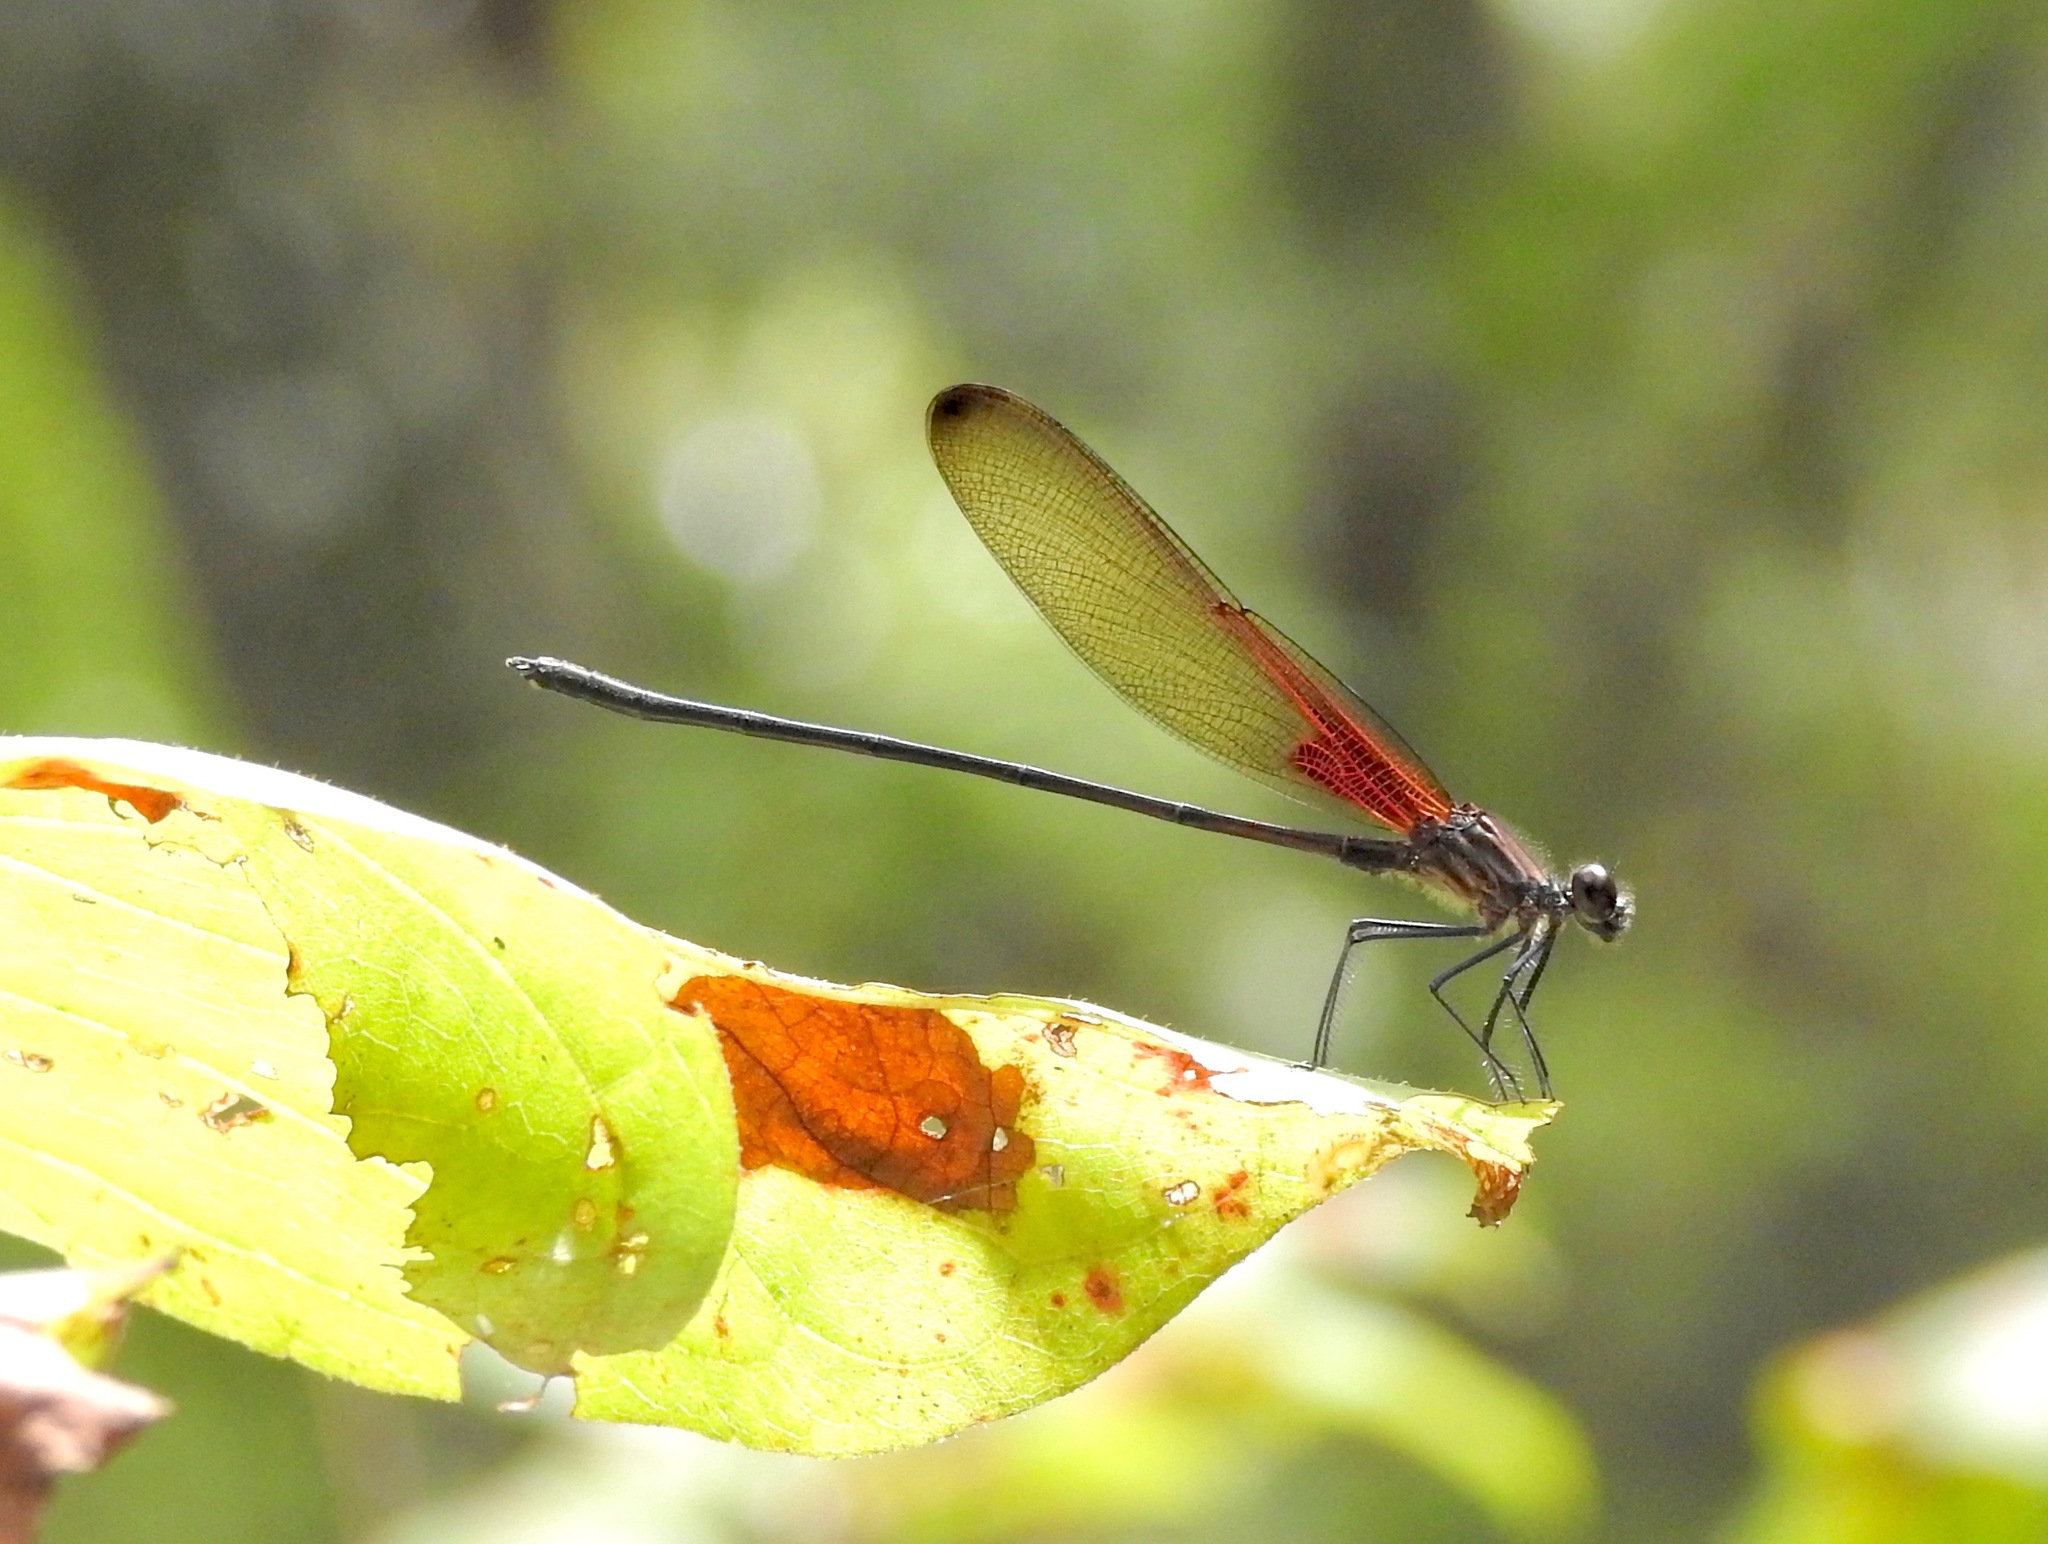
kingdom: Animalia
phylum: Arthropoda
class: Insecta
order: Odonata
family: Calopterygidae
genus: Hetaerina
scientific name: Hetaerina titia
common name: Smoky rubyspot
